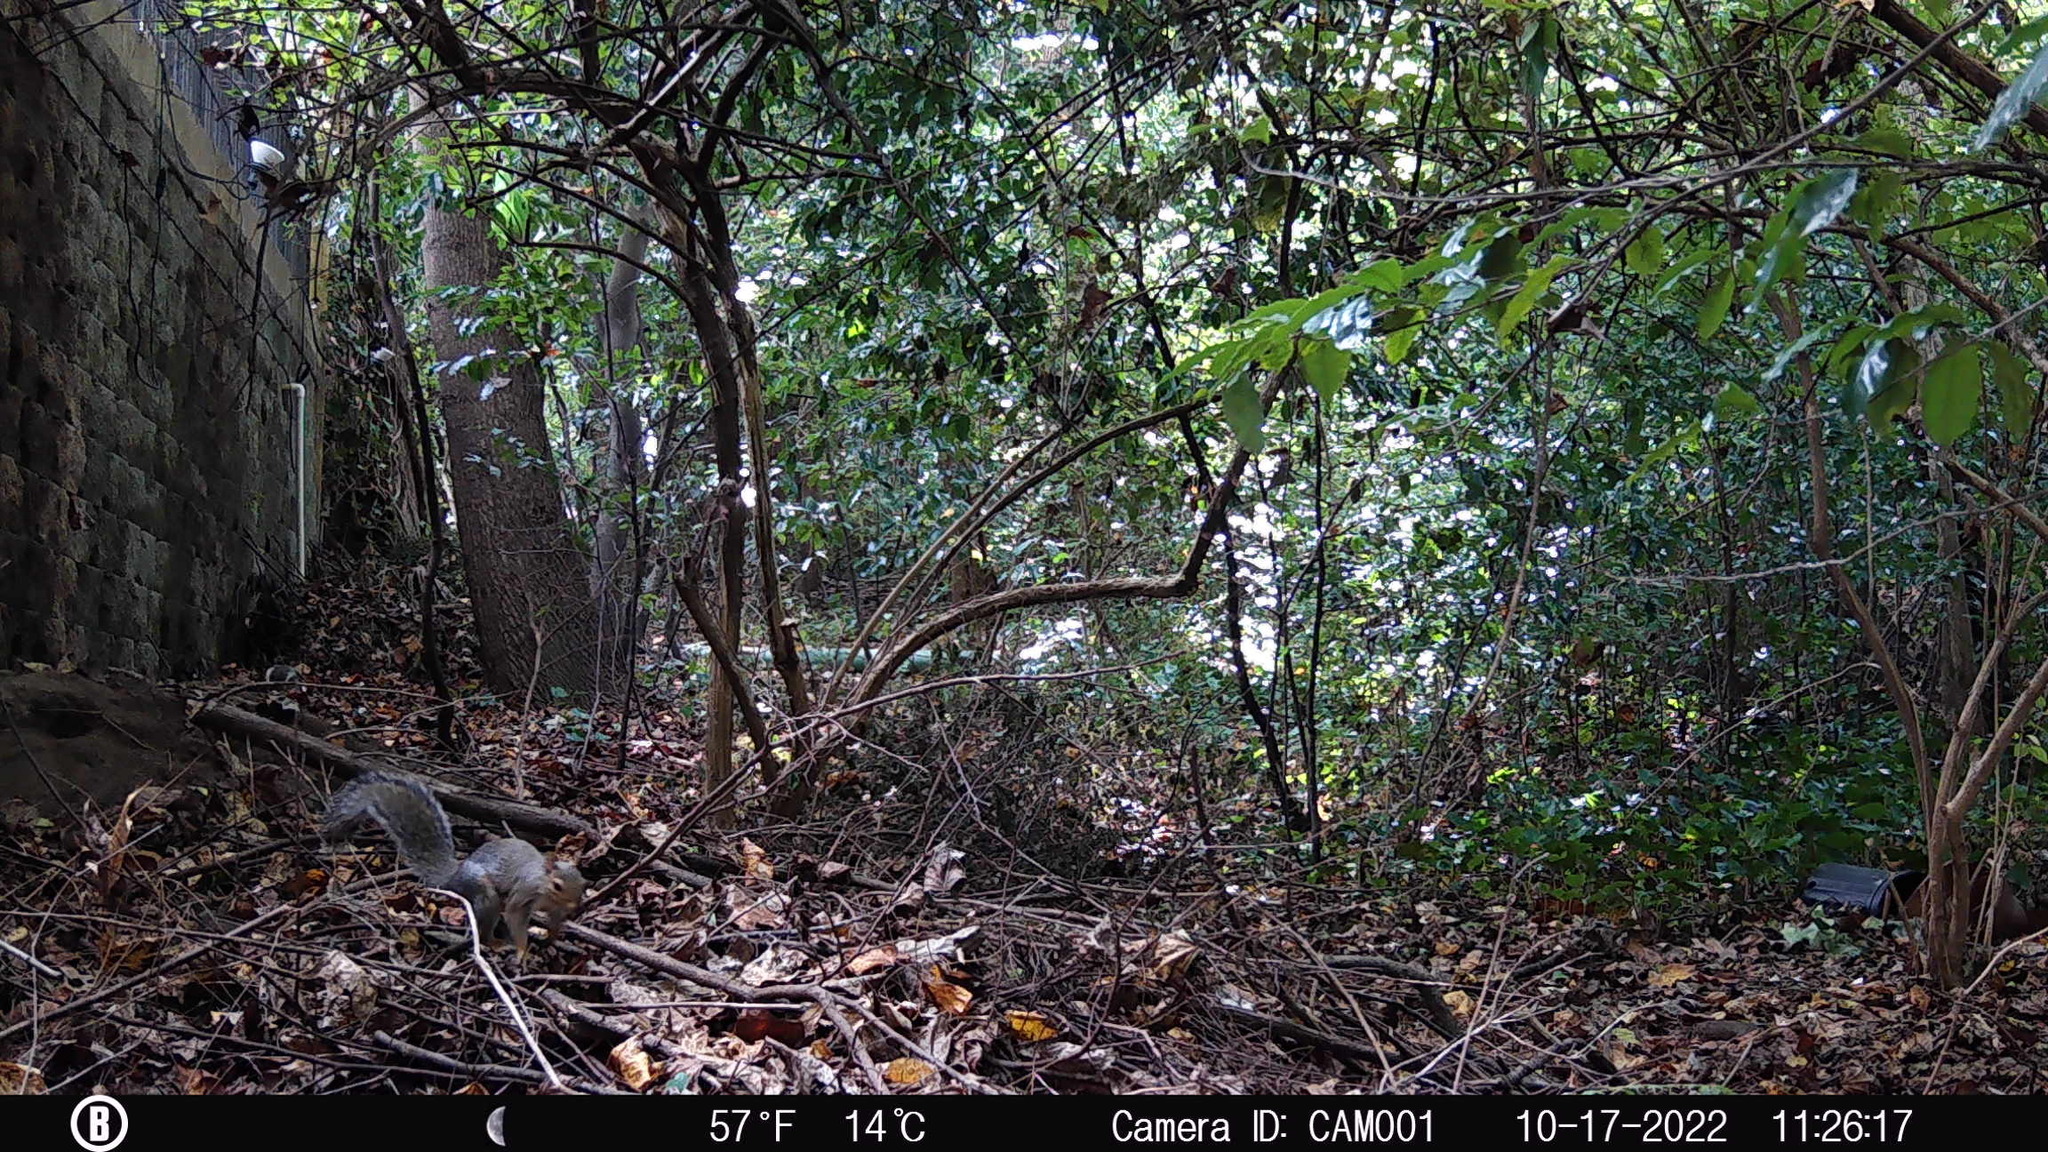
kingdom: Animalia
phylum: Chordata
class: Mammalia
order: Rodentia
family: Sciuridae
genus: Sciurus
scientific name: Sciurus carolinensis
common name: Eastern gray squirrel
